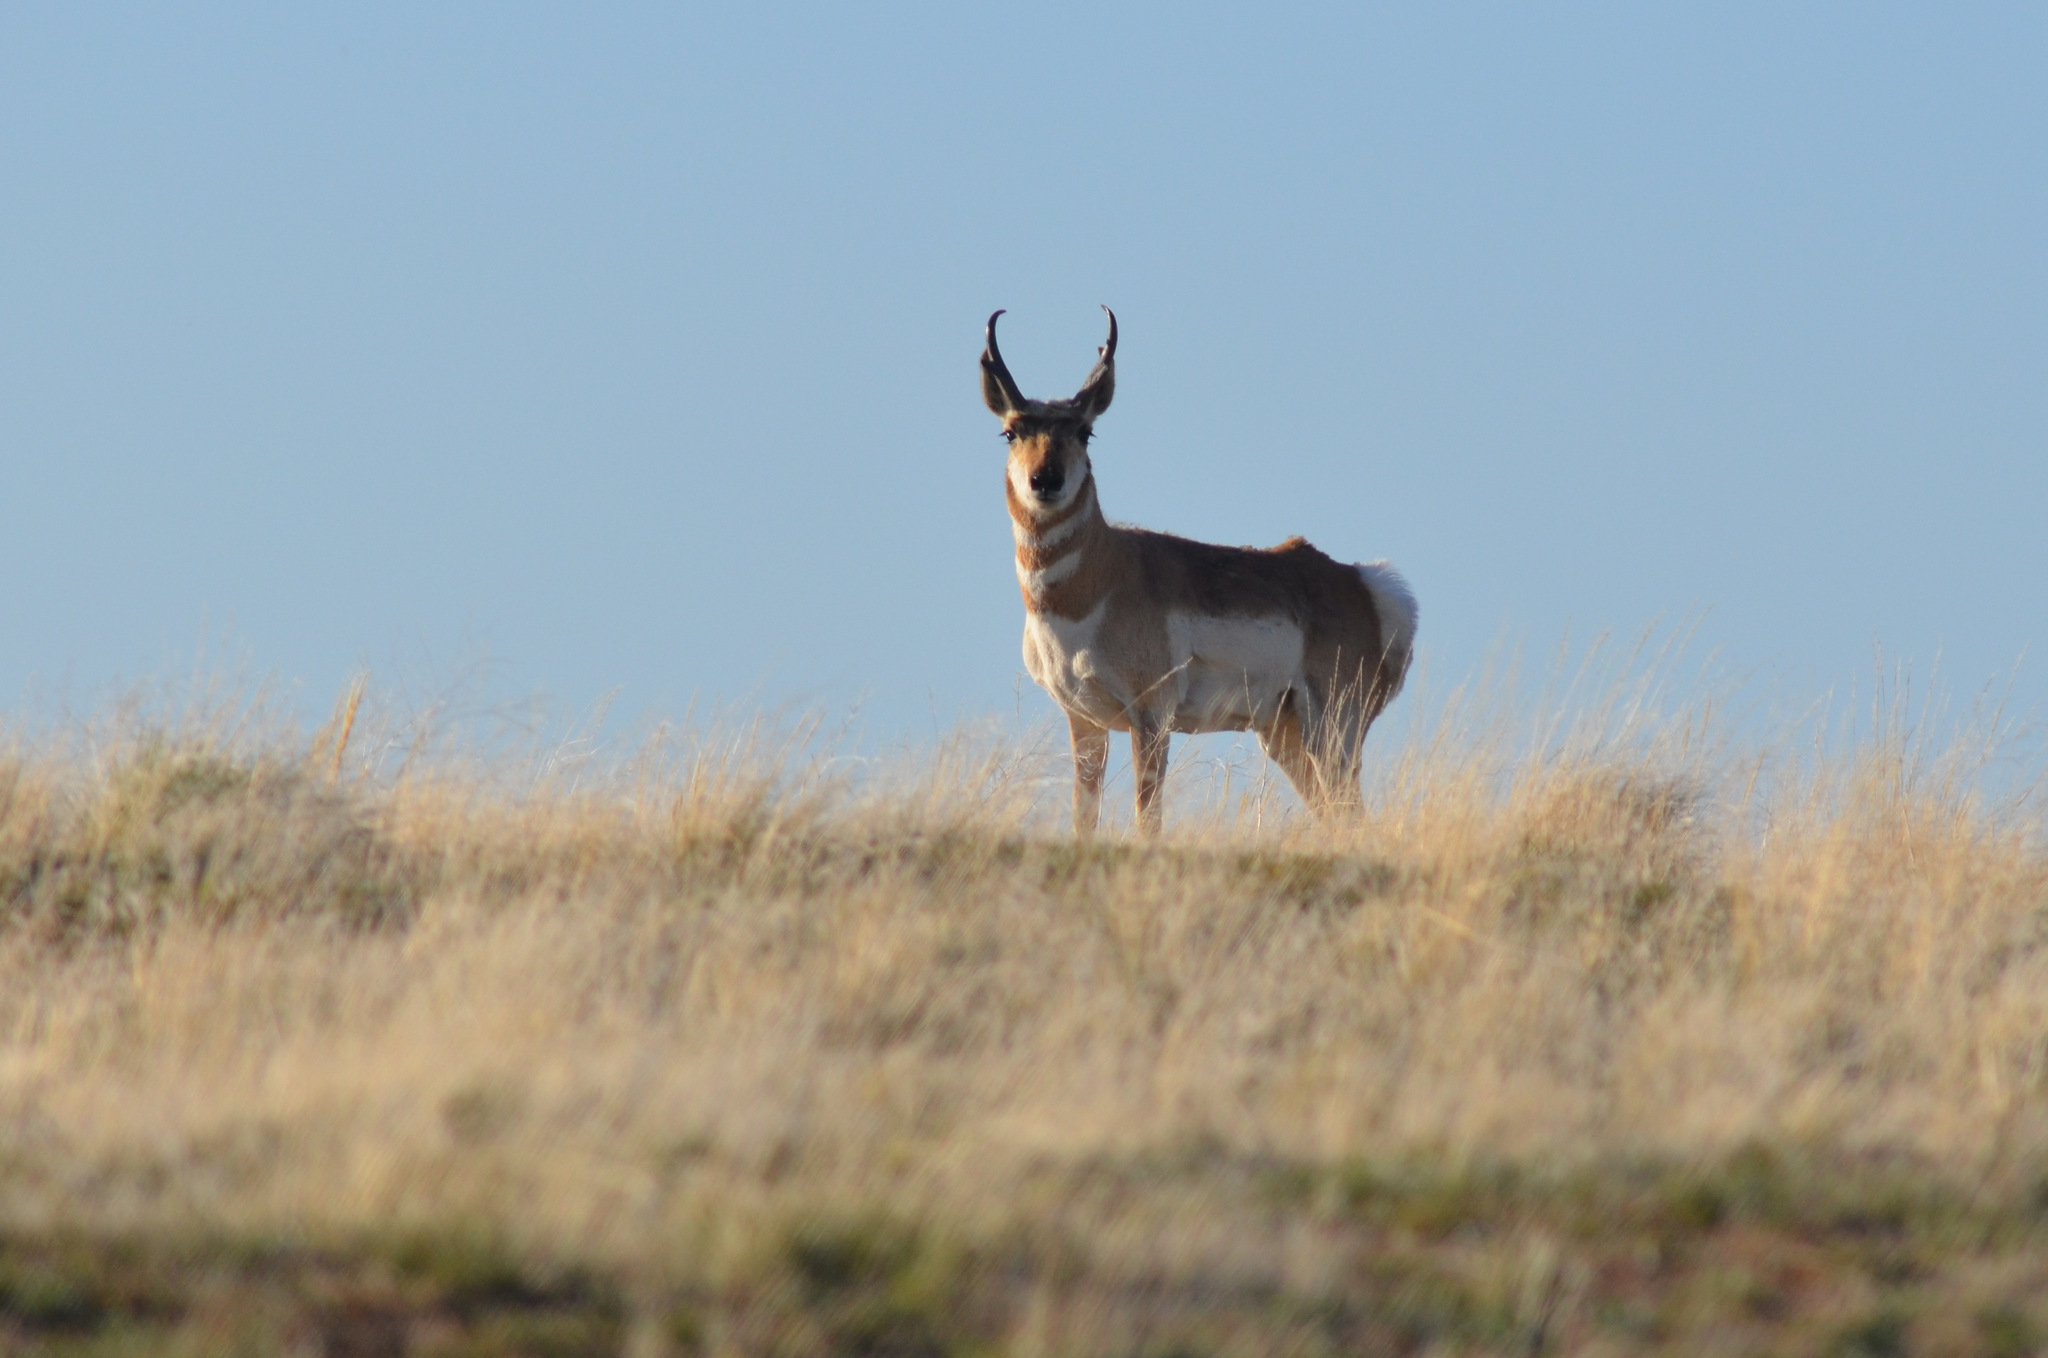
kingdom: Animalia
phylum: Chordata
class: Mammalia
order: Artiodactyla
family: Antilocapridae
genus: Antilocapra
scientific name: Antilocapra americana
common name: Pronghorn
